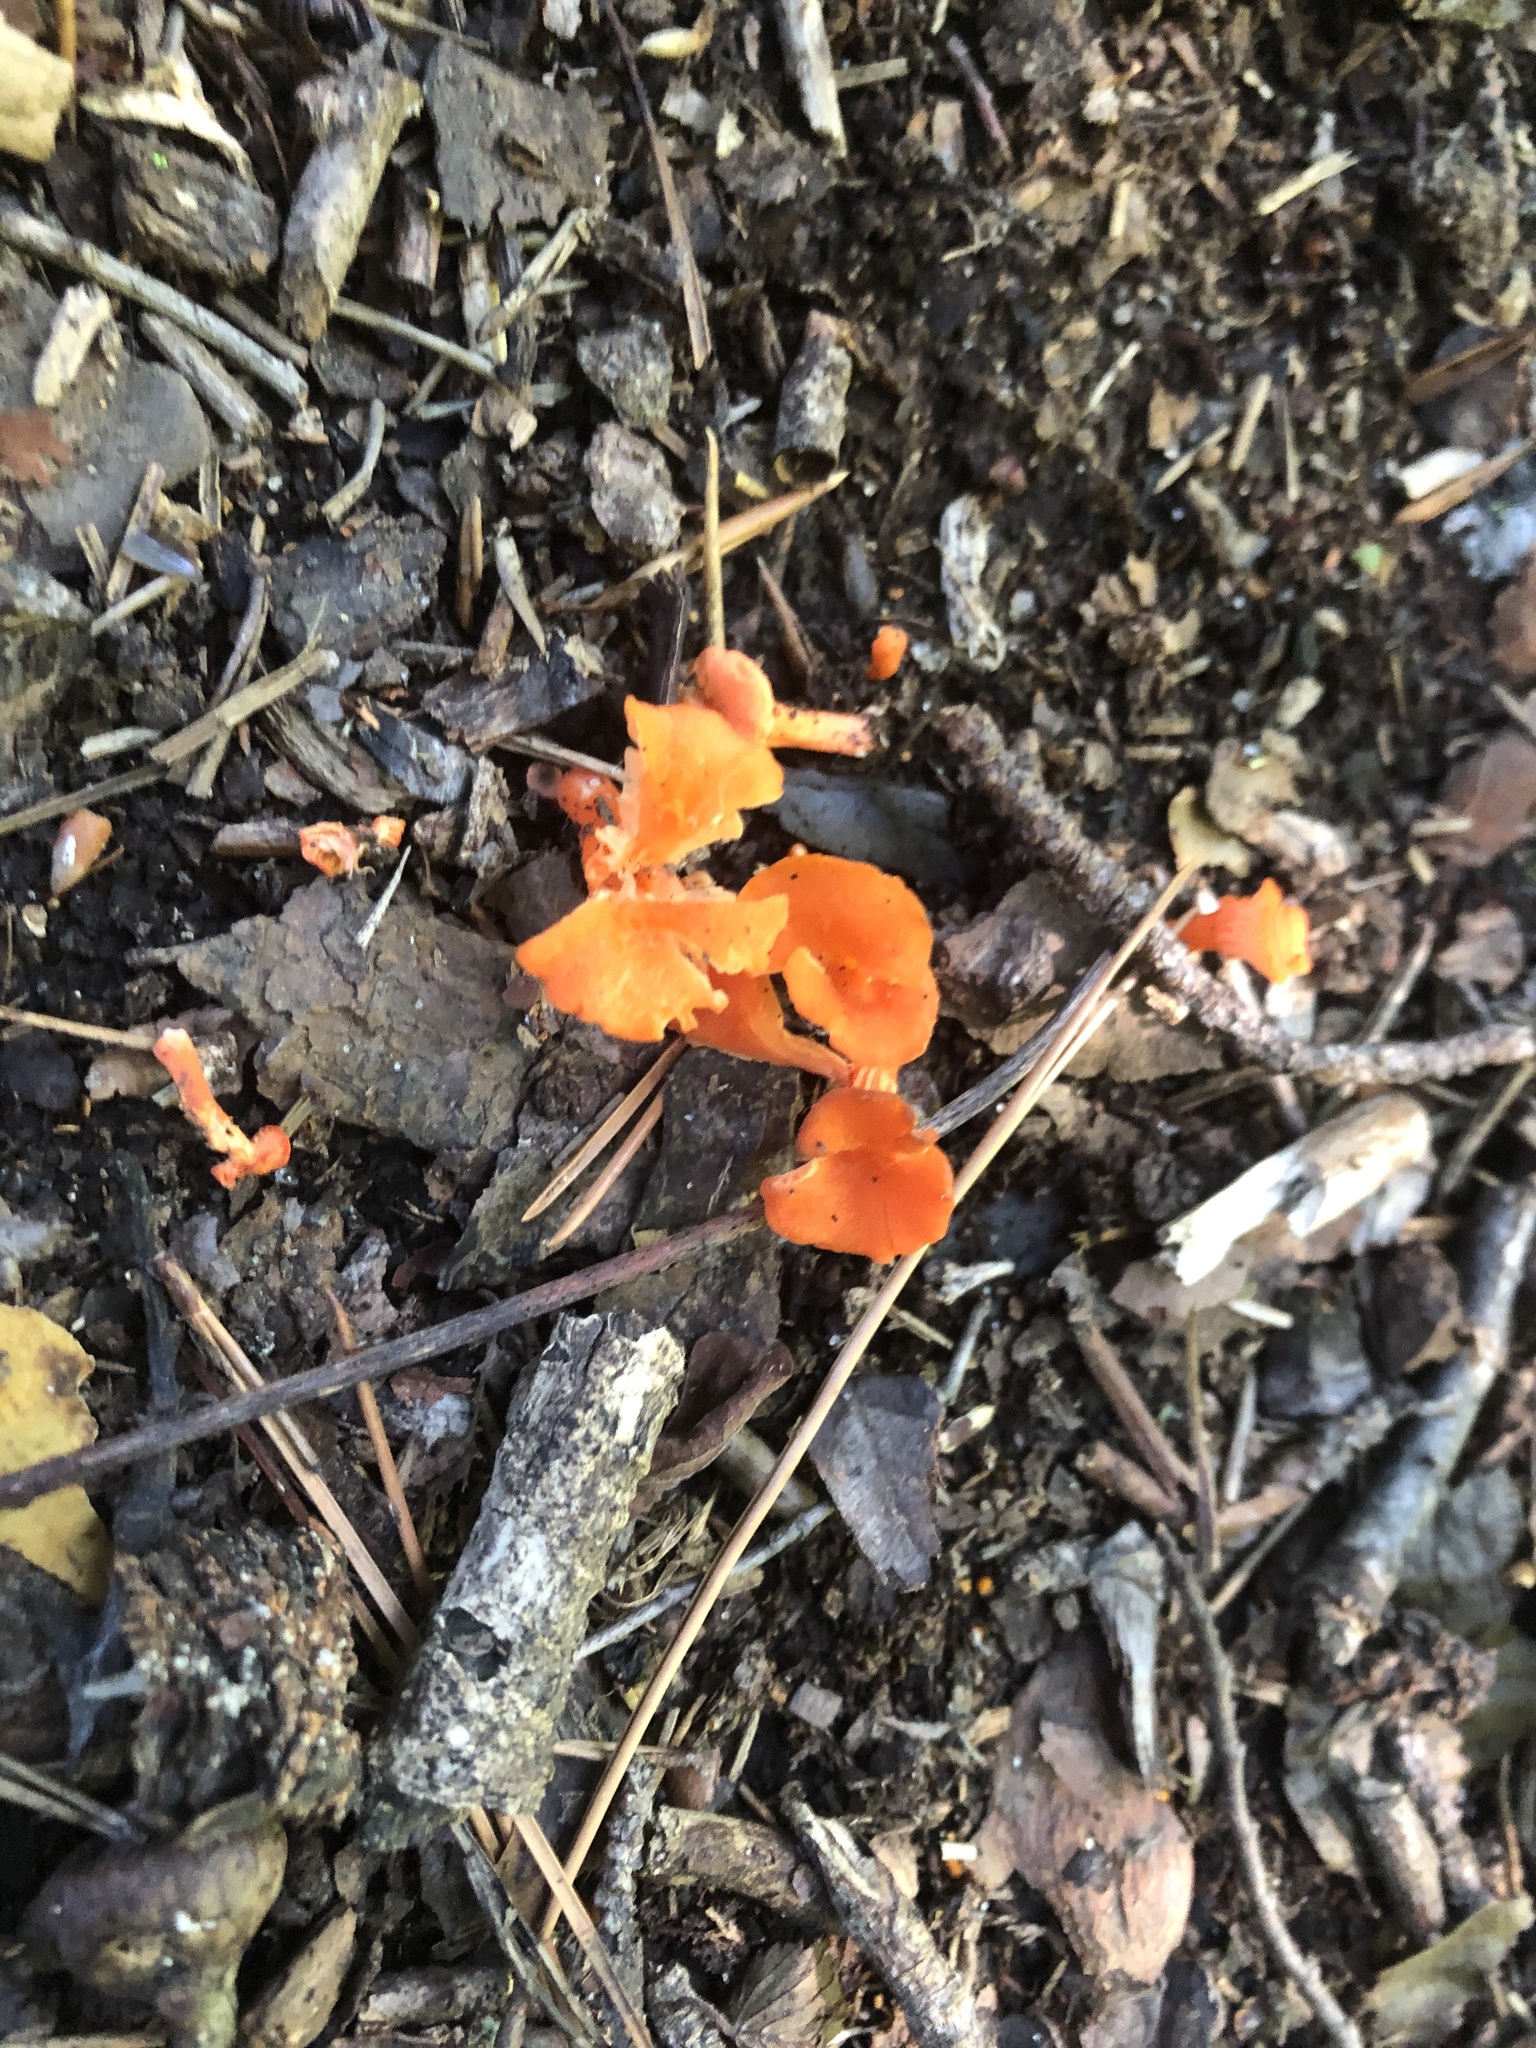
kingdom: Fungi
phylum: Basidiomycota
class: Agaricomycetes
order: Cantharellales
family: Hydnaceae
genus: Cantharellus
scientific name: Cantharellus cinnabarinus
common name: Cinnabar chanterelle
